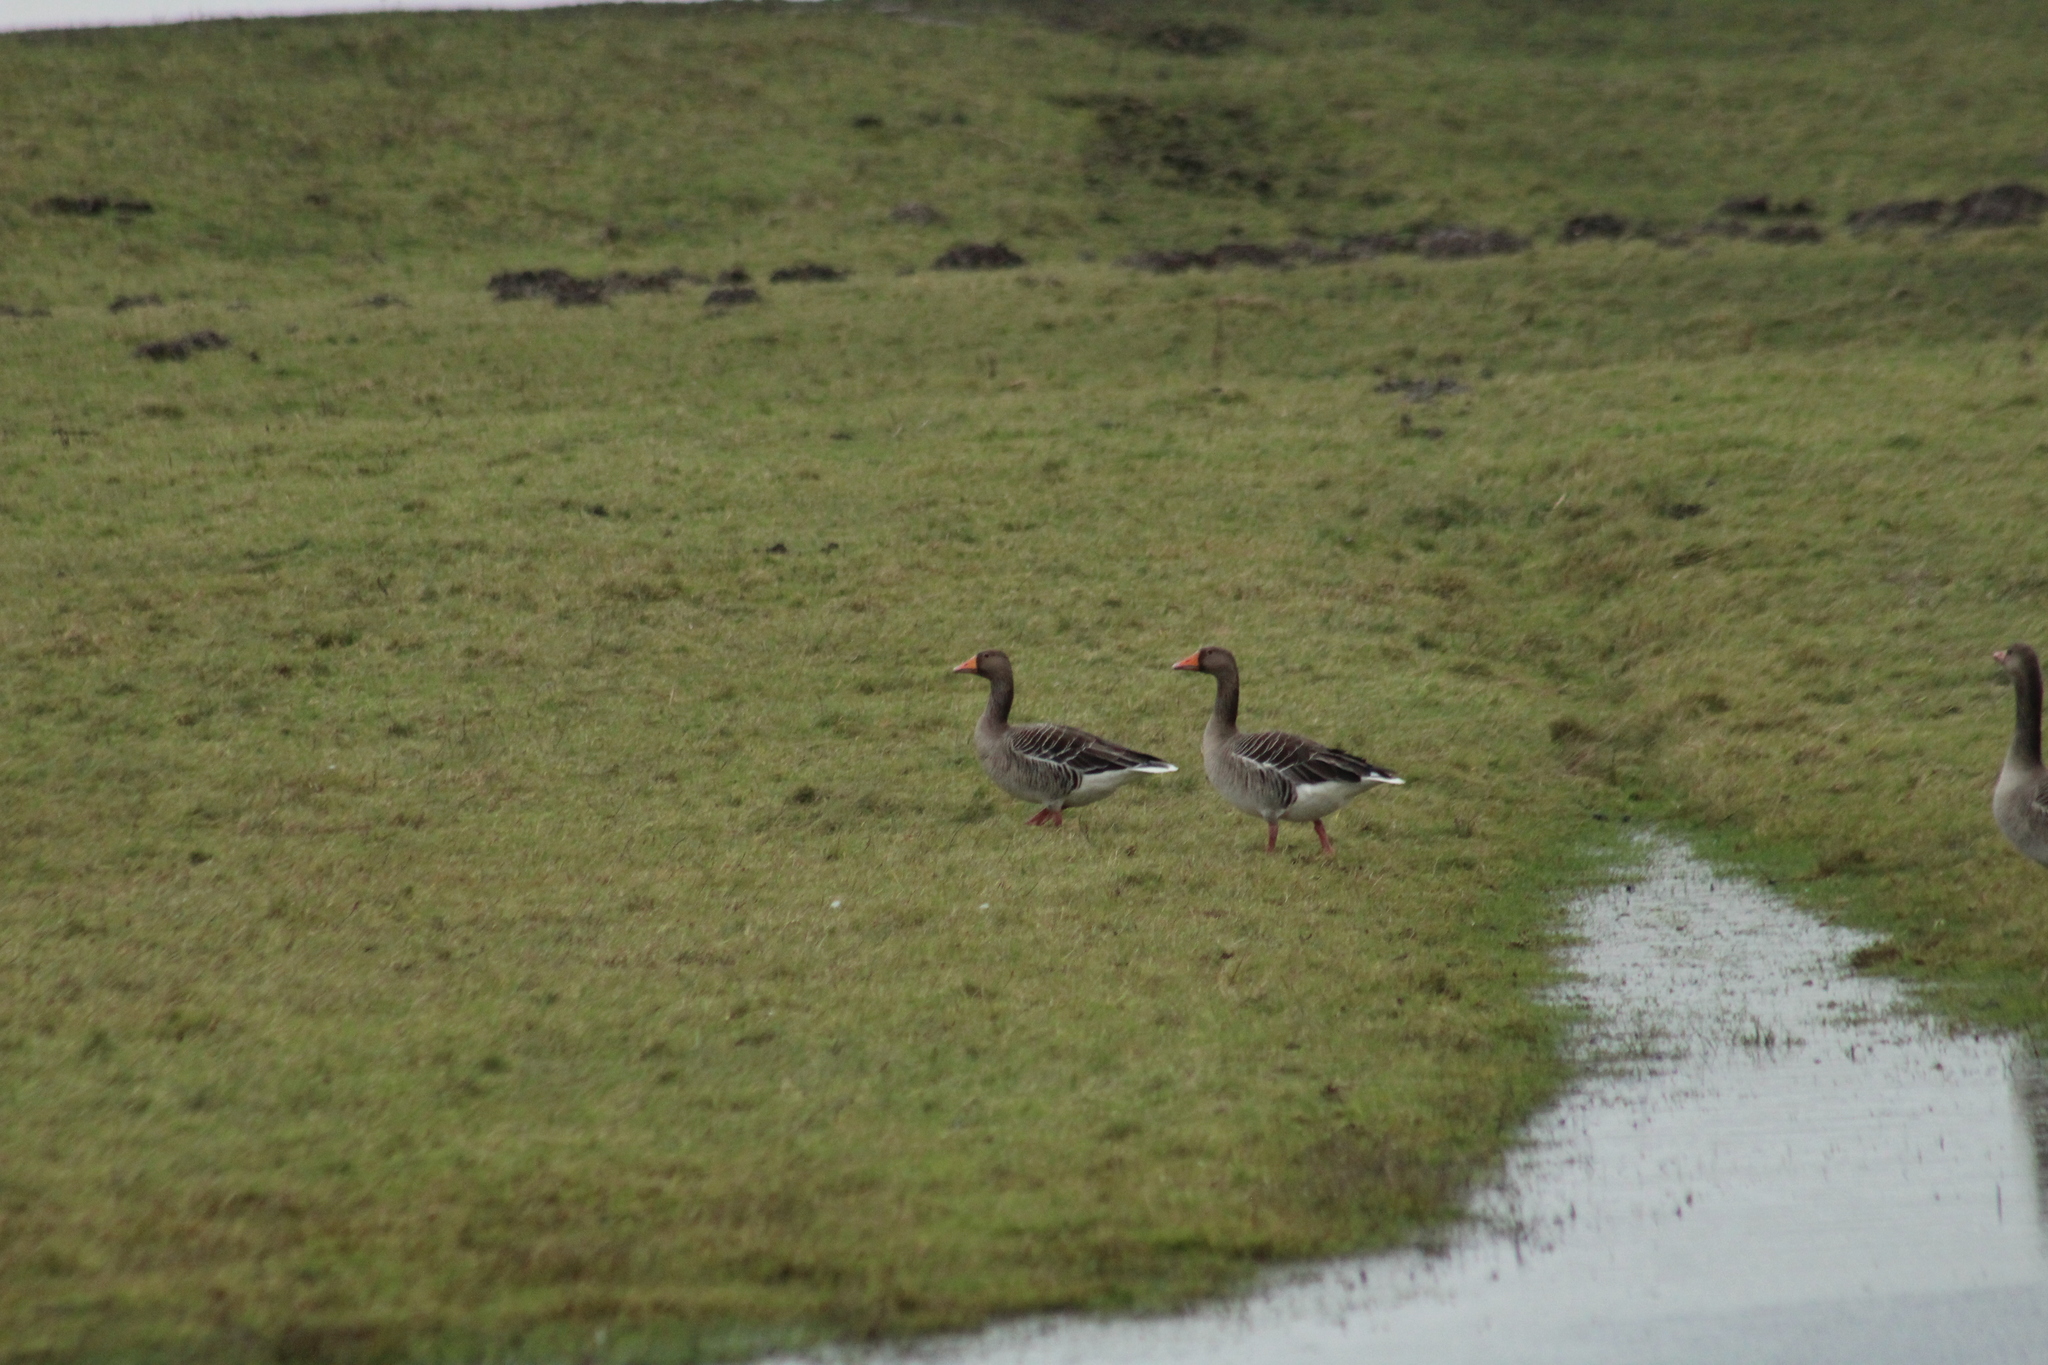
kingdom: Animalia
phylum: Chordata
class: Aves
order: Anseriformes
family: Anatidae
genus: Anser
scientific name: Anser anser
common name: Greylag goose
